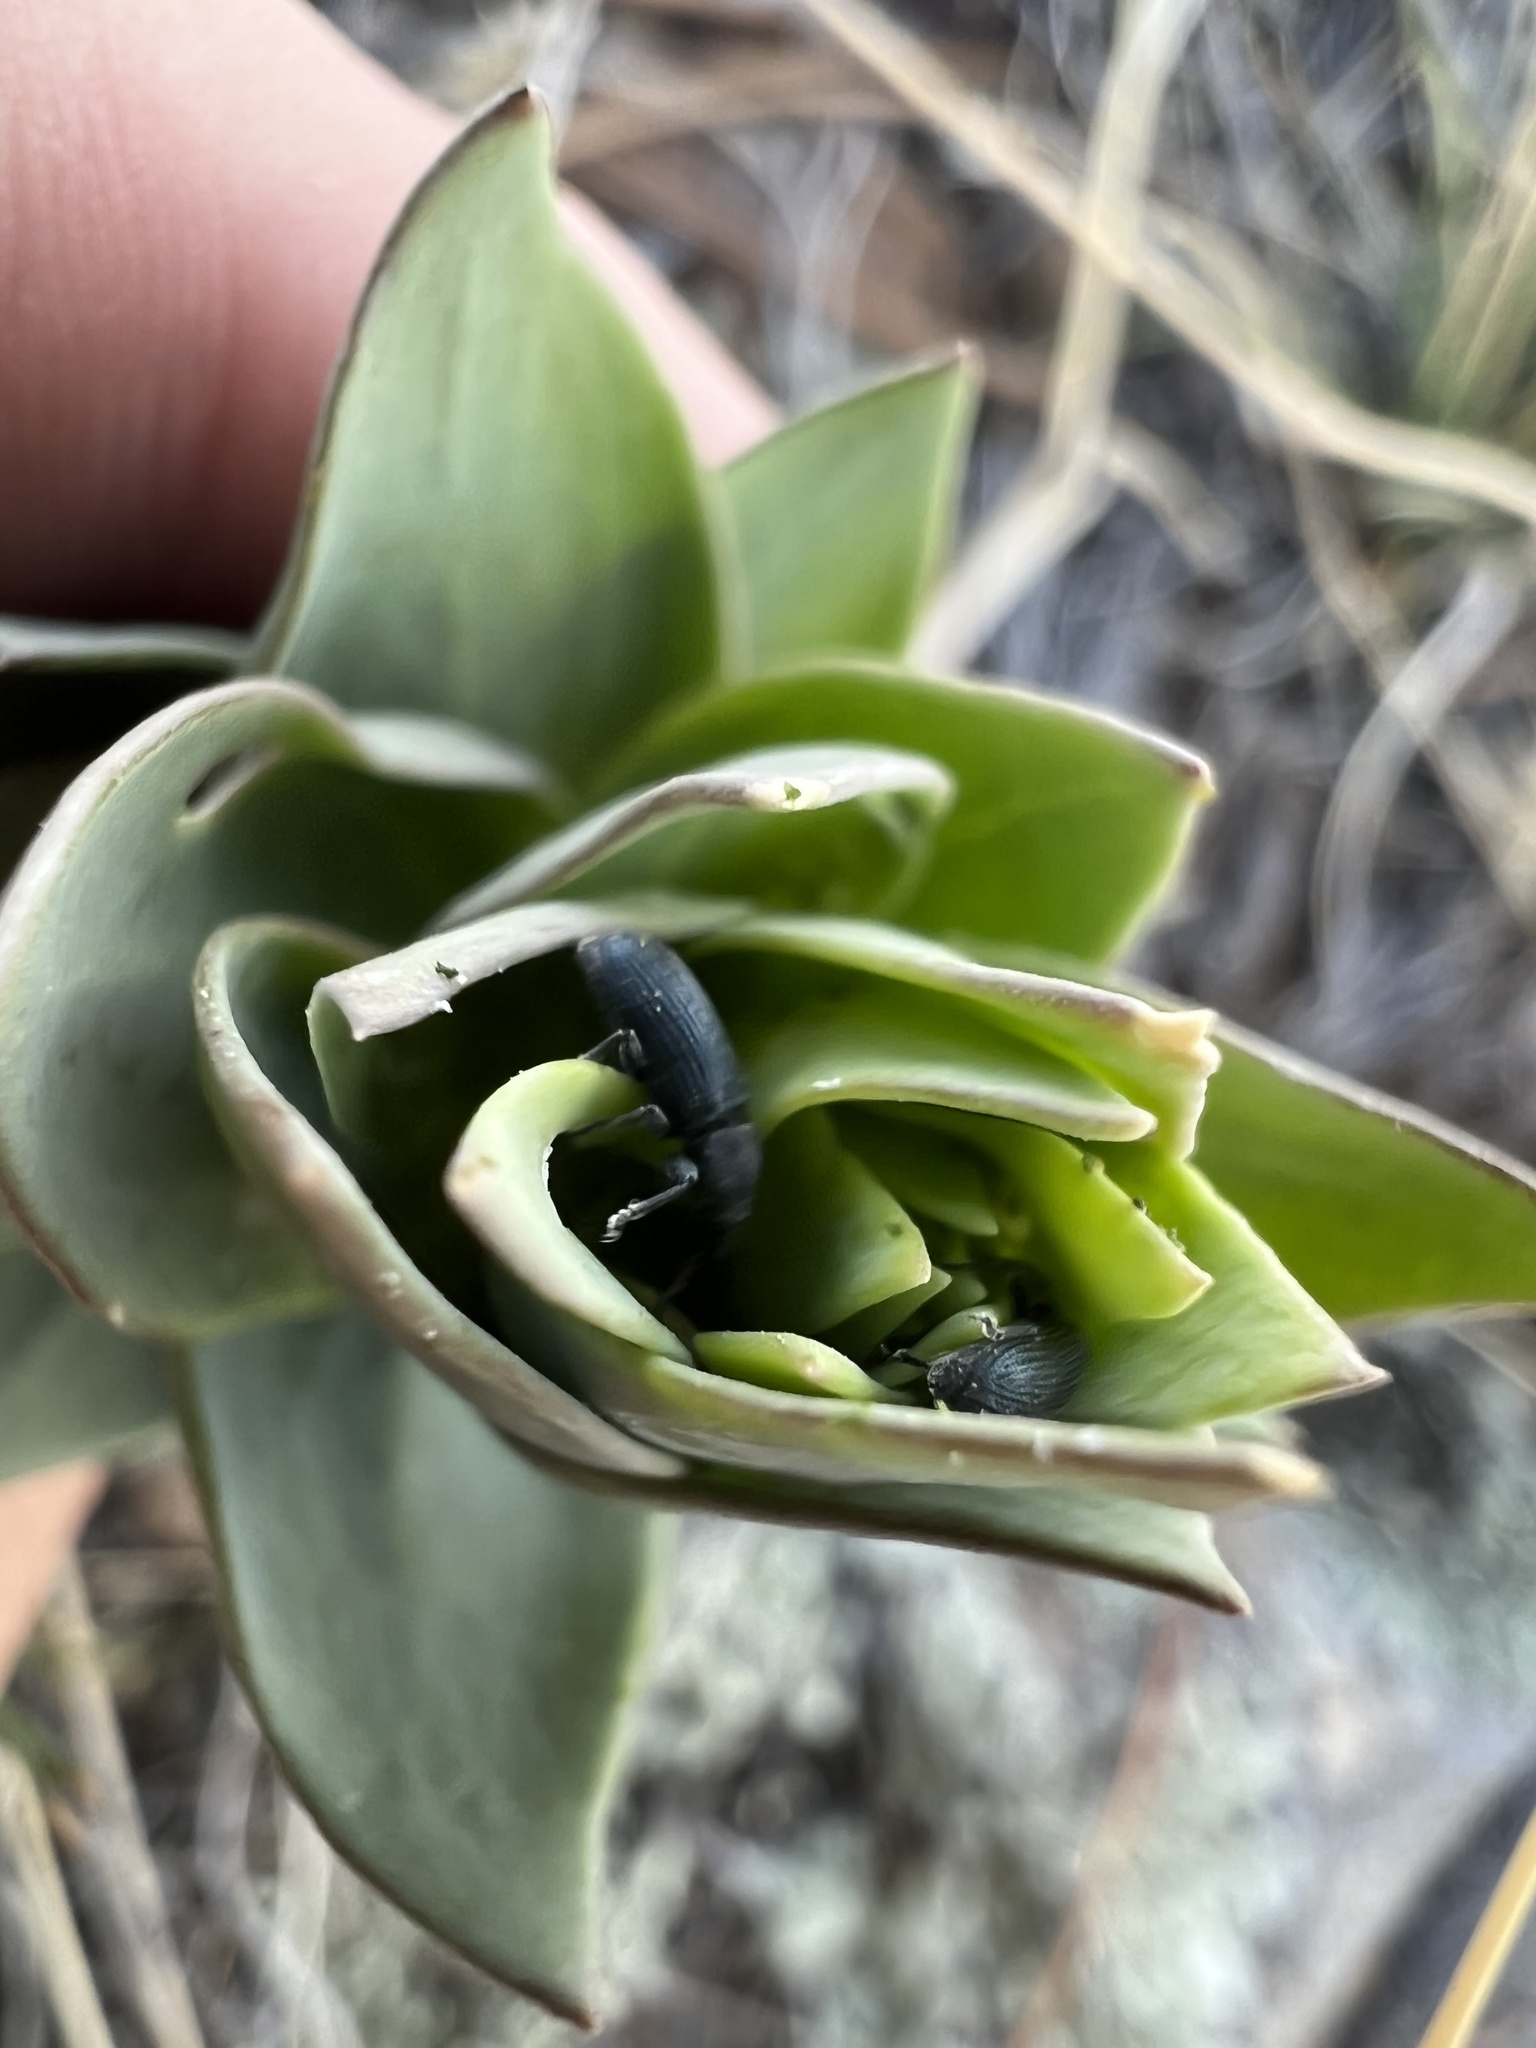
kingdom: Animalia
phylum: Arthropoda
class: Insecta
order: Coleoptera
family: Curculionidae
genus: Mecinus
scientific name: Mecinus janthiniformis
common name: Dalmatian toadflax stem weevil
